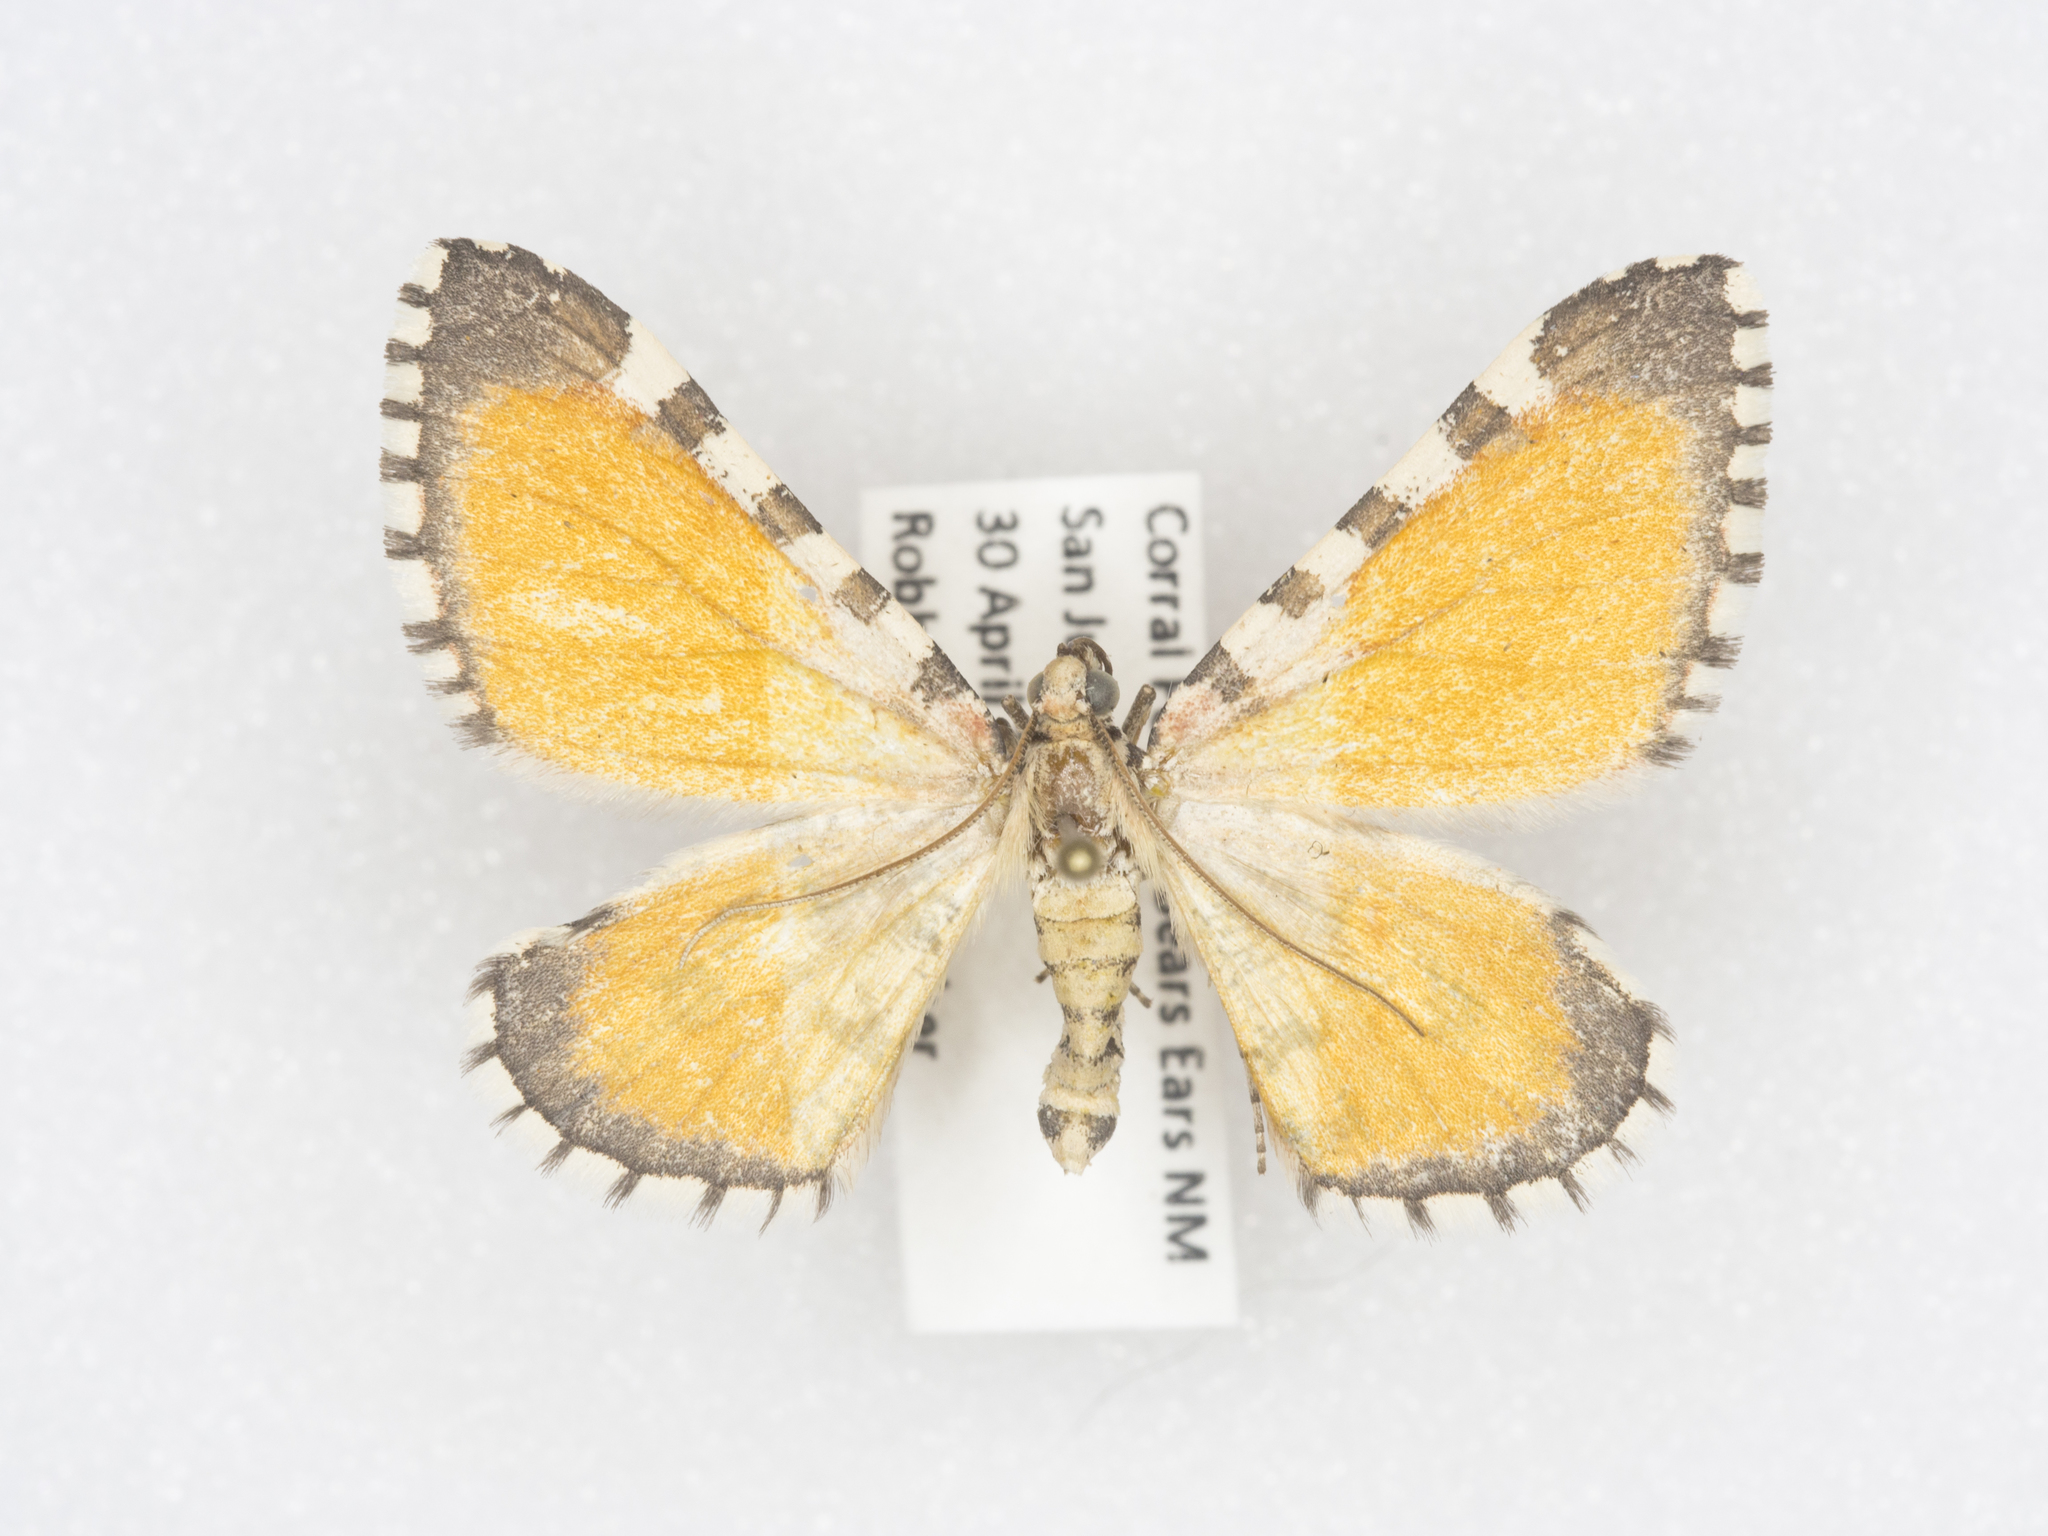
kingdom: Animalia
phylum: Arthropoda
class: Insecta
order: Lepidoptera
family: Geometridae
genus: Stamnodes
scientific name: Stamnodes tessellata
